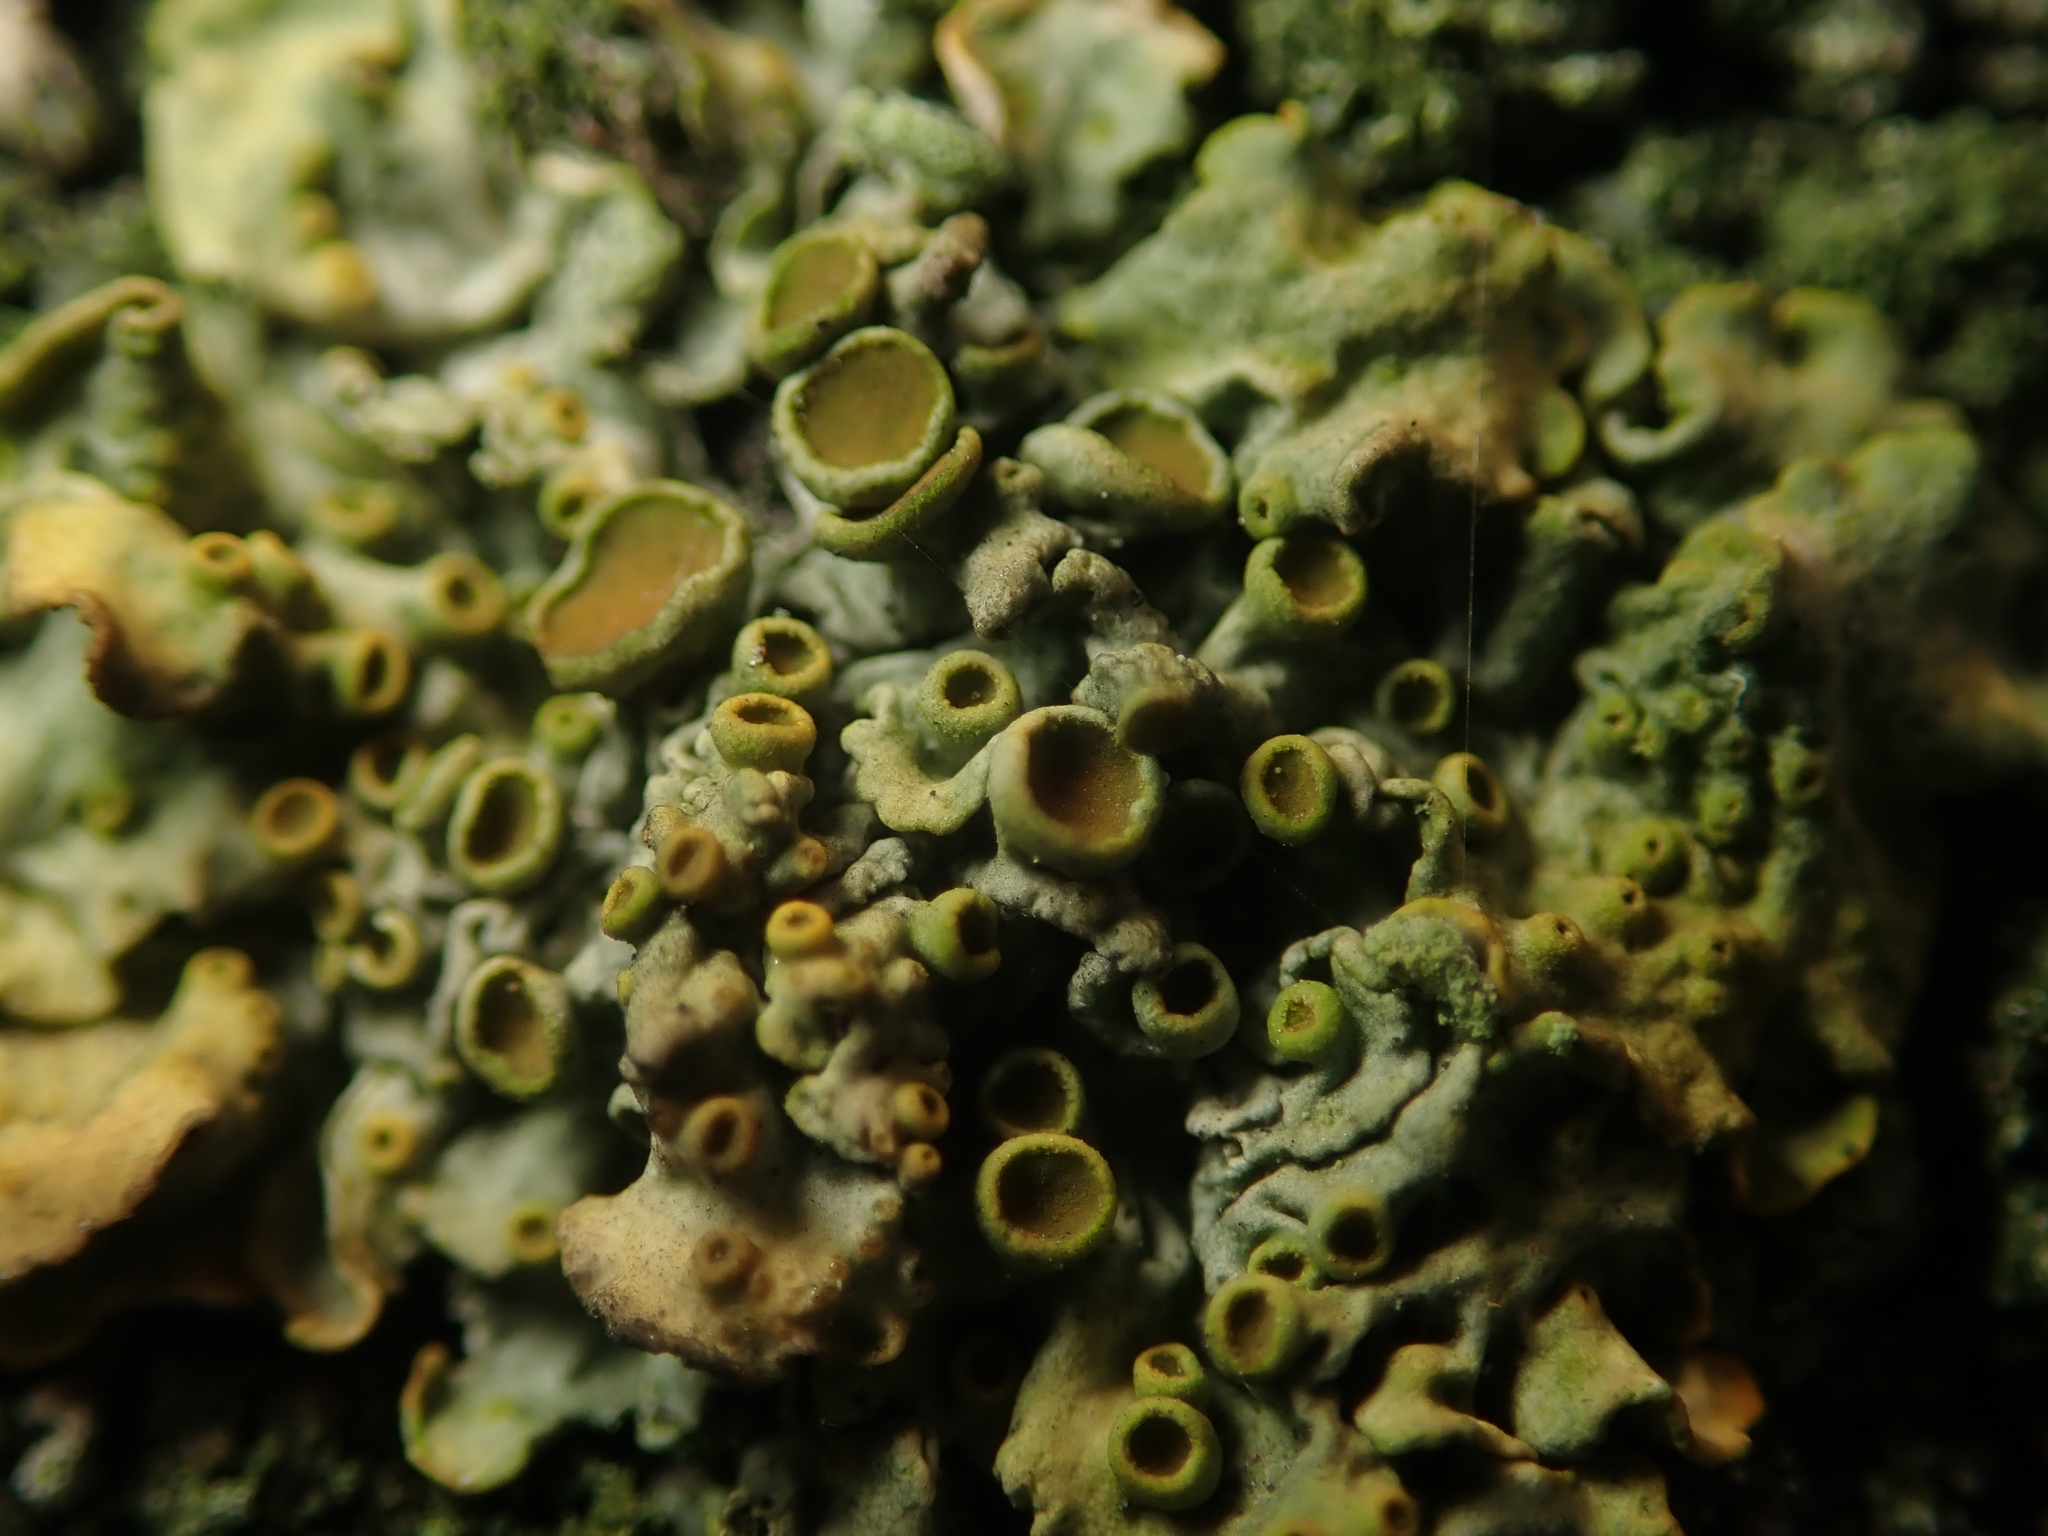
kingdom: Fungi
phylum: Ascomycota
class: Lecanoromycetes
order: Teloschistales
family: Teloschistaceae
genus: Xanthoria
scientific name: Xanthoria parietina
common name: Common orange lichen
